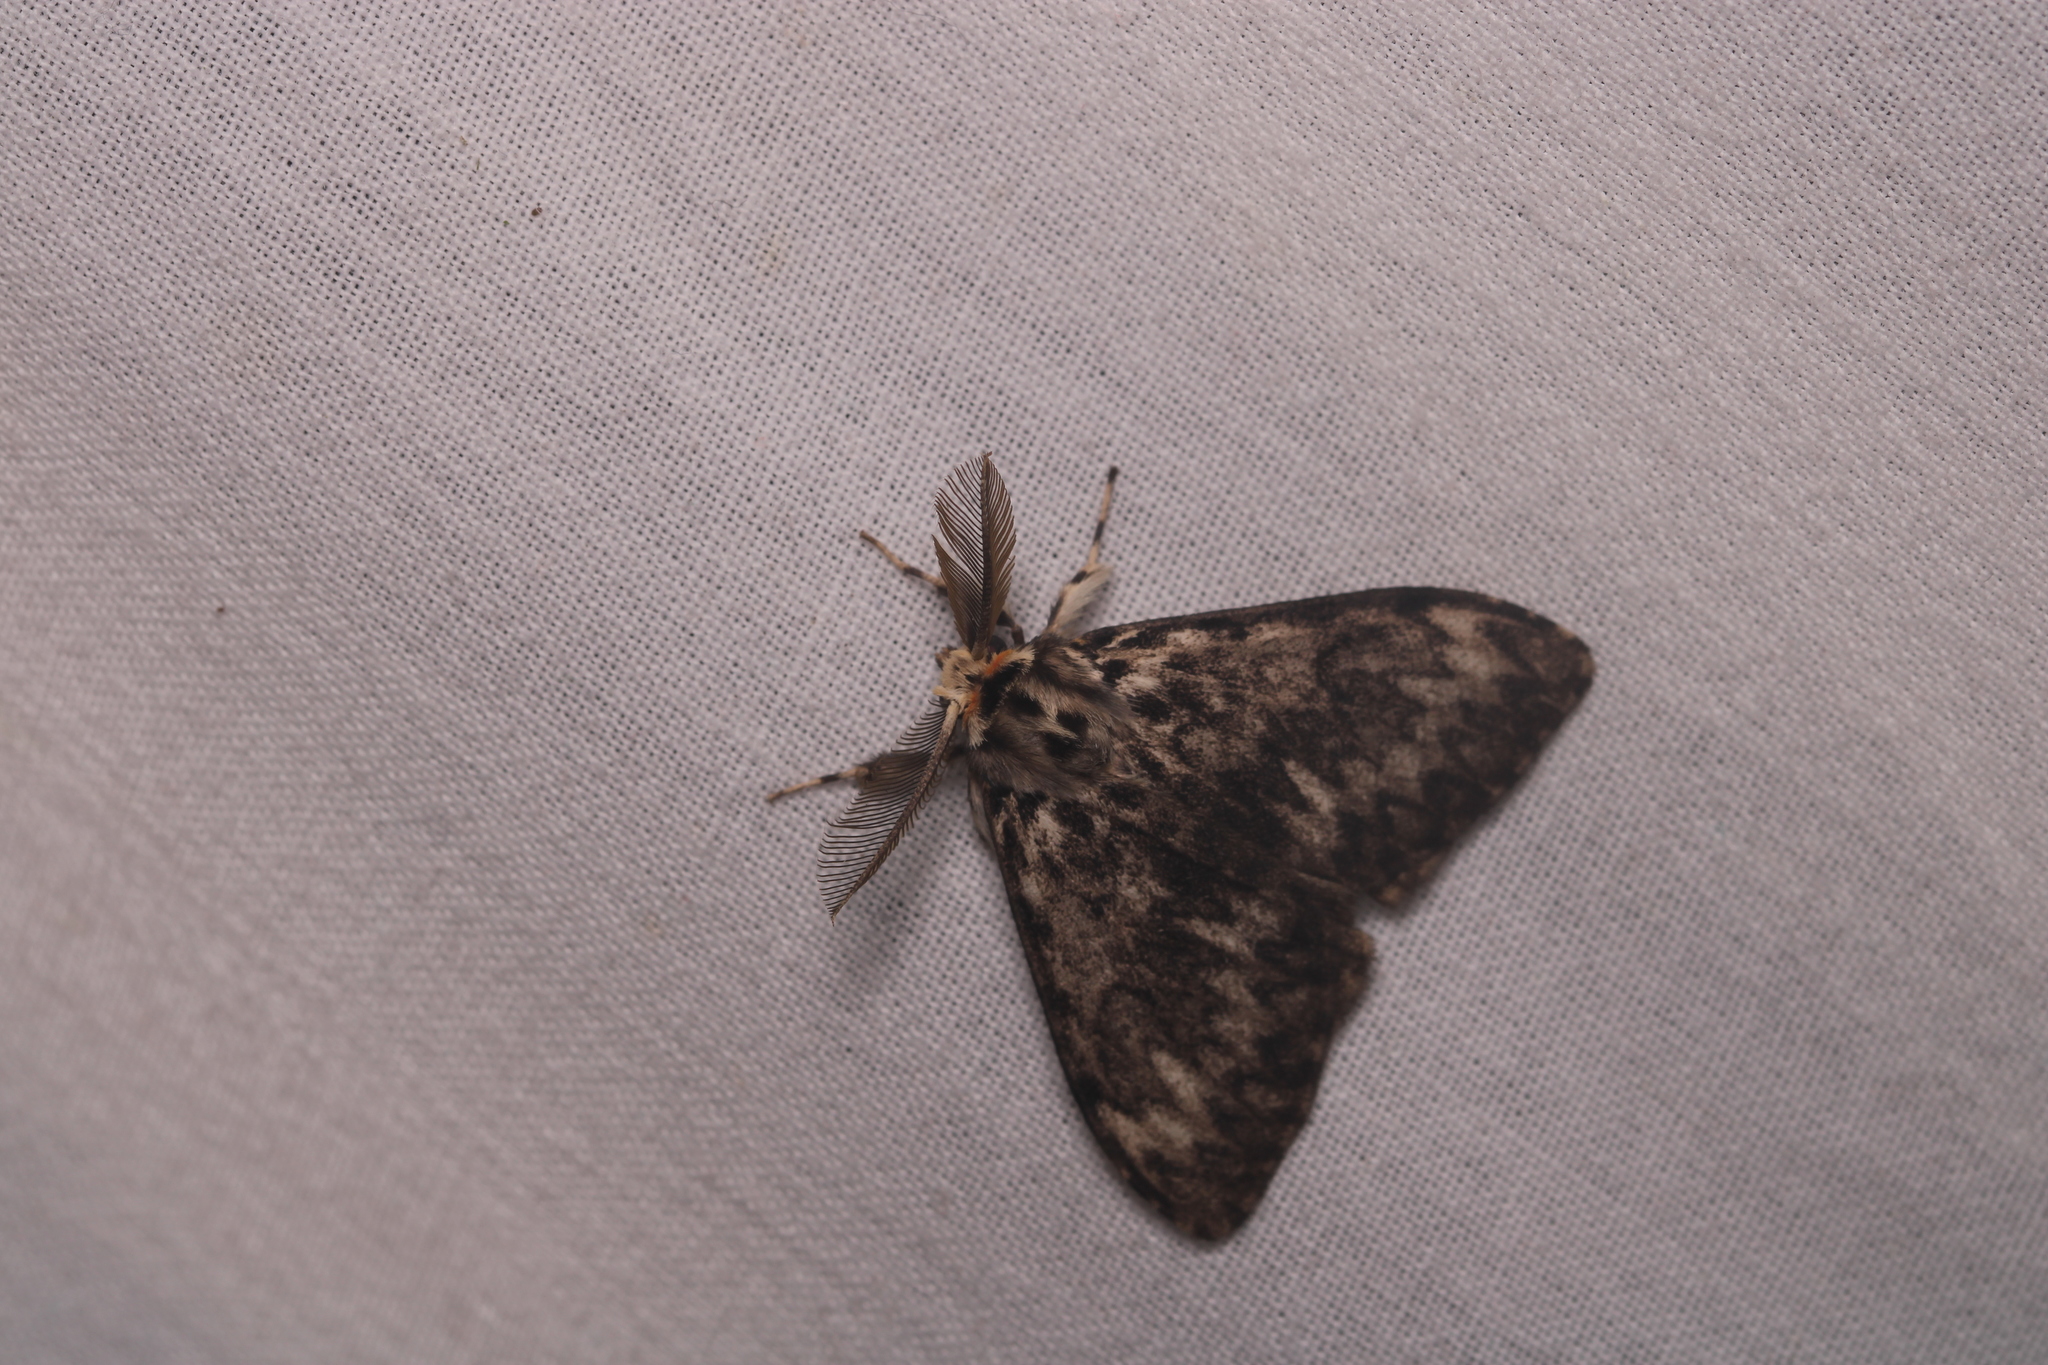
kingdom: Animalia
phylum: Arthropoda
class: Insecta
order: Lepidoptera
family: Erebidae
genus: Lymantria
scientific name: Lymantria monacha
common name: Black arches
